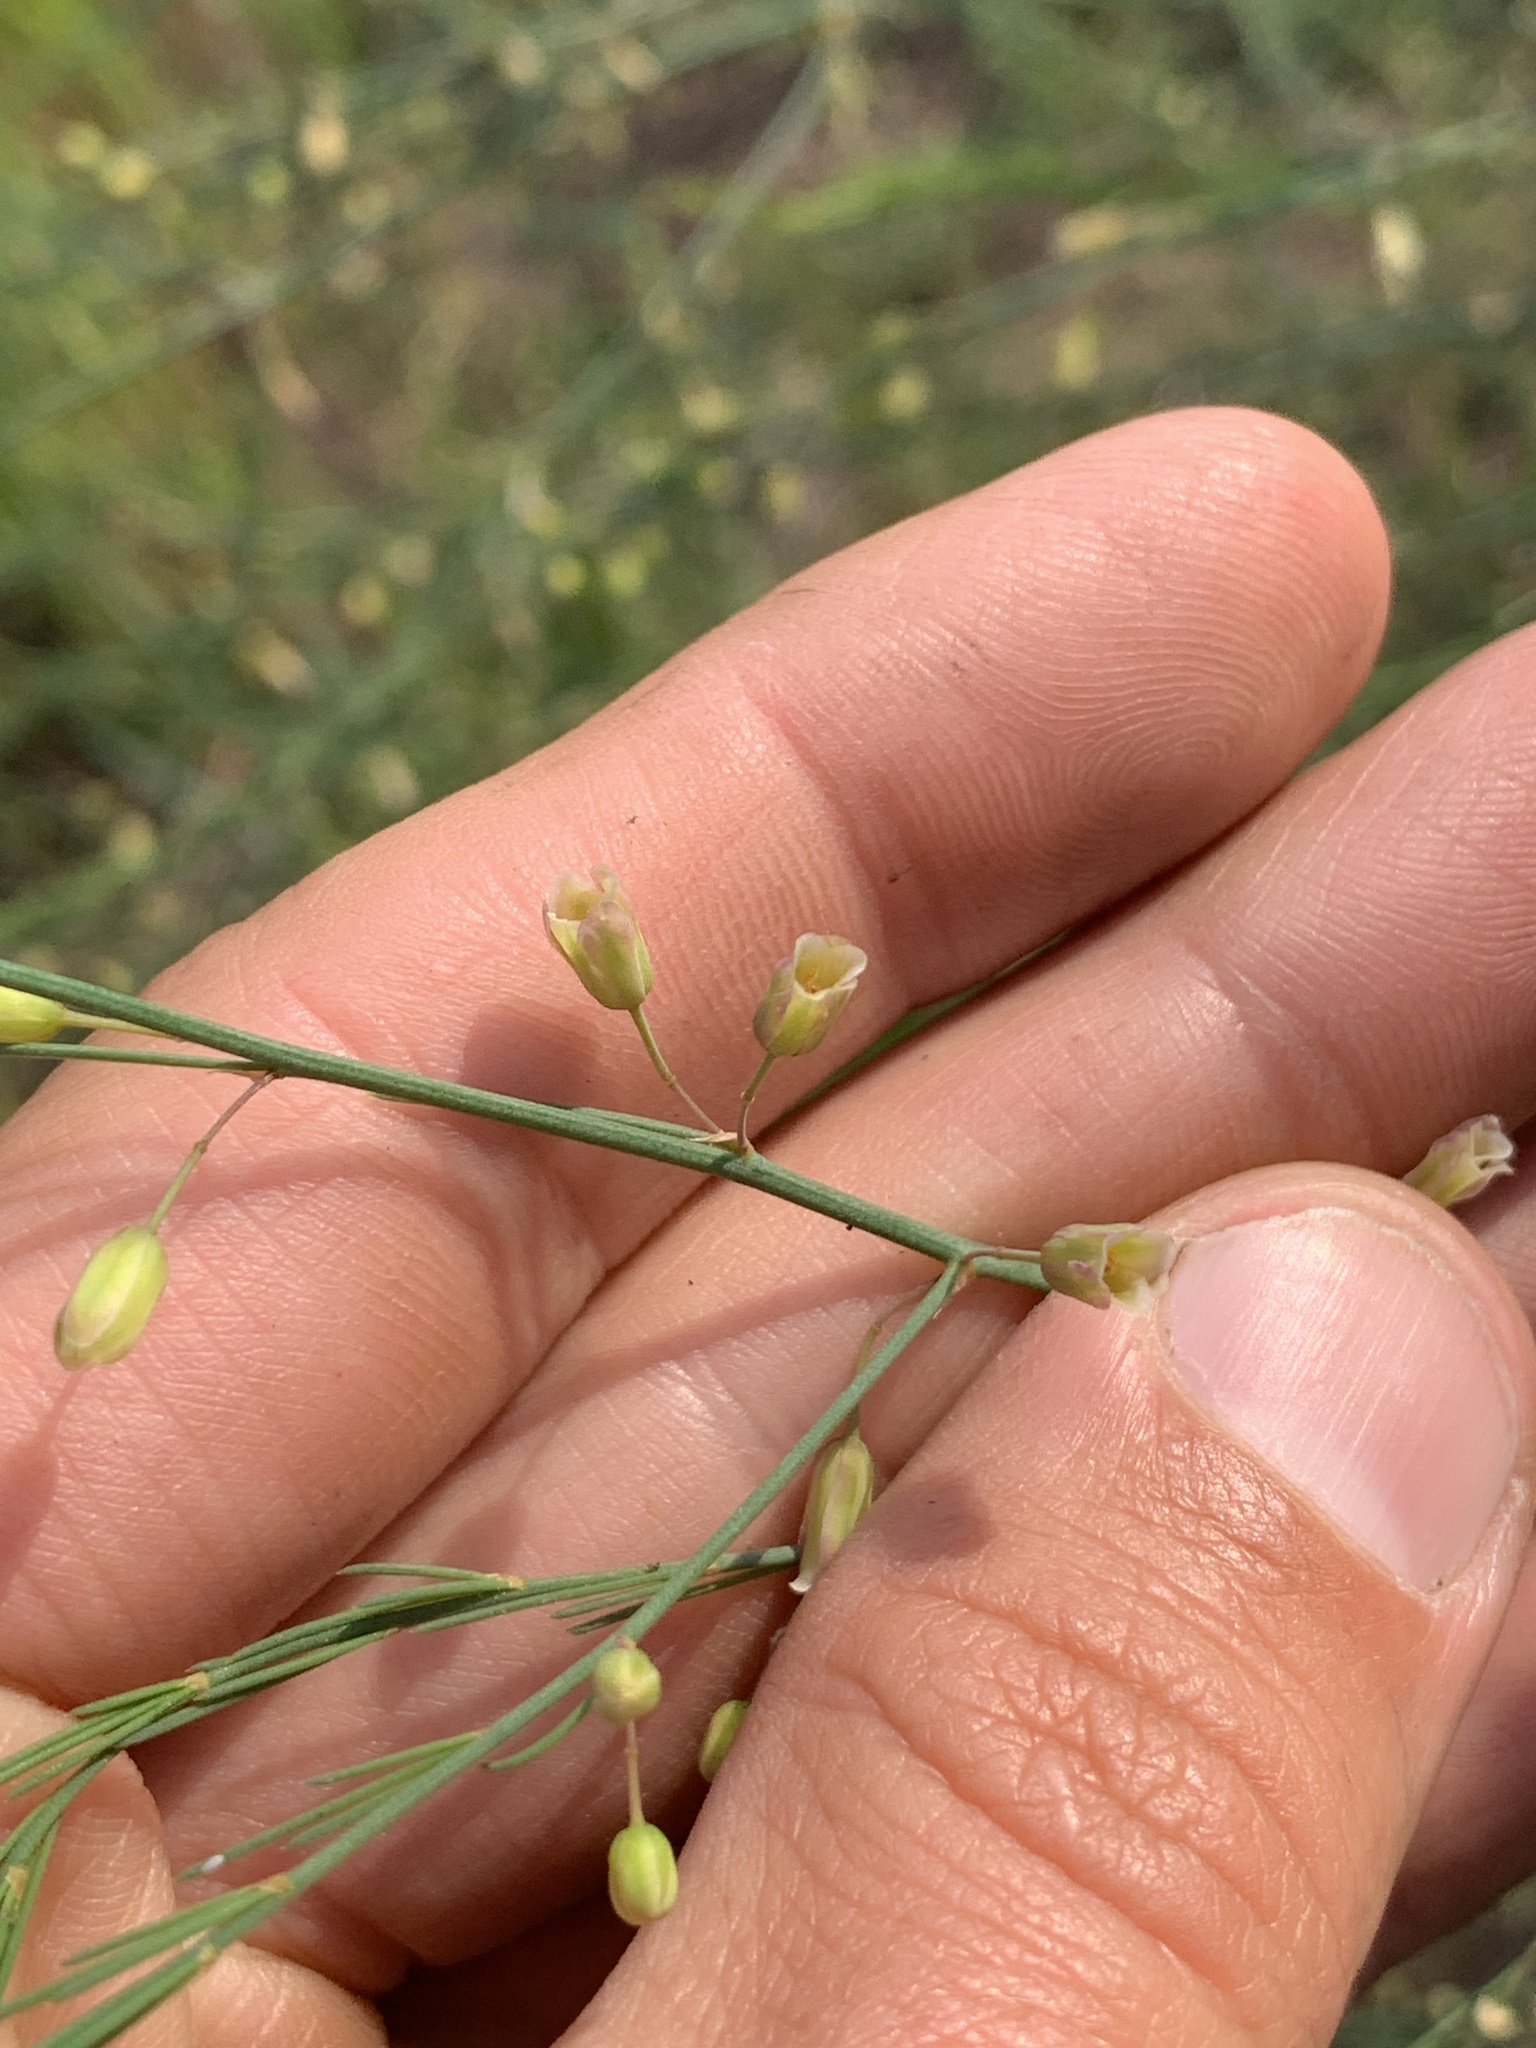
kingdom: Plantae
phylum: Tracheophyta
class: Liliopsida
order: Asparagales
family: Asparagaceae
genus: Asparagus
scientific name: Asparagus officinalis
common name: Garden asparagus
